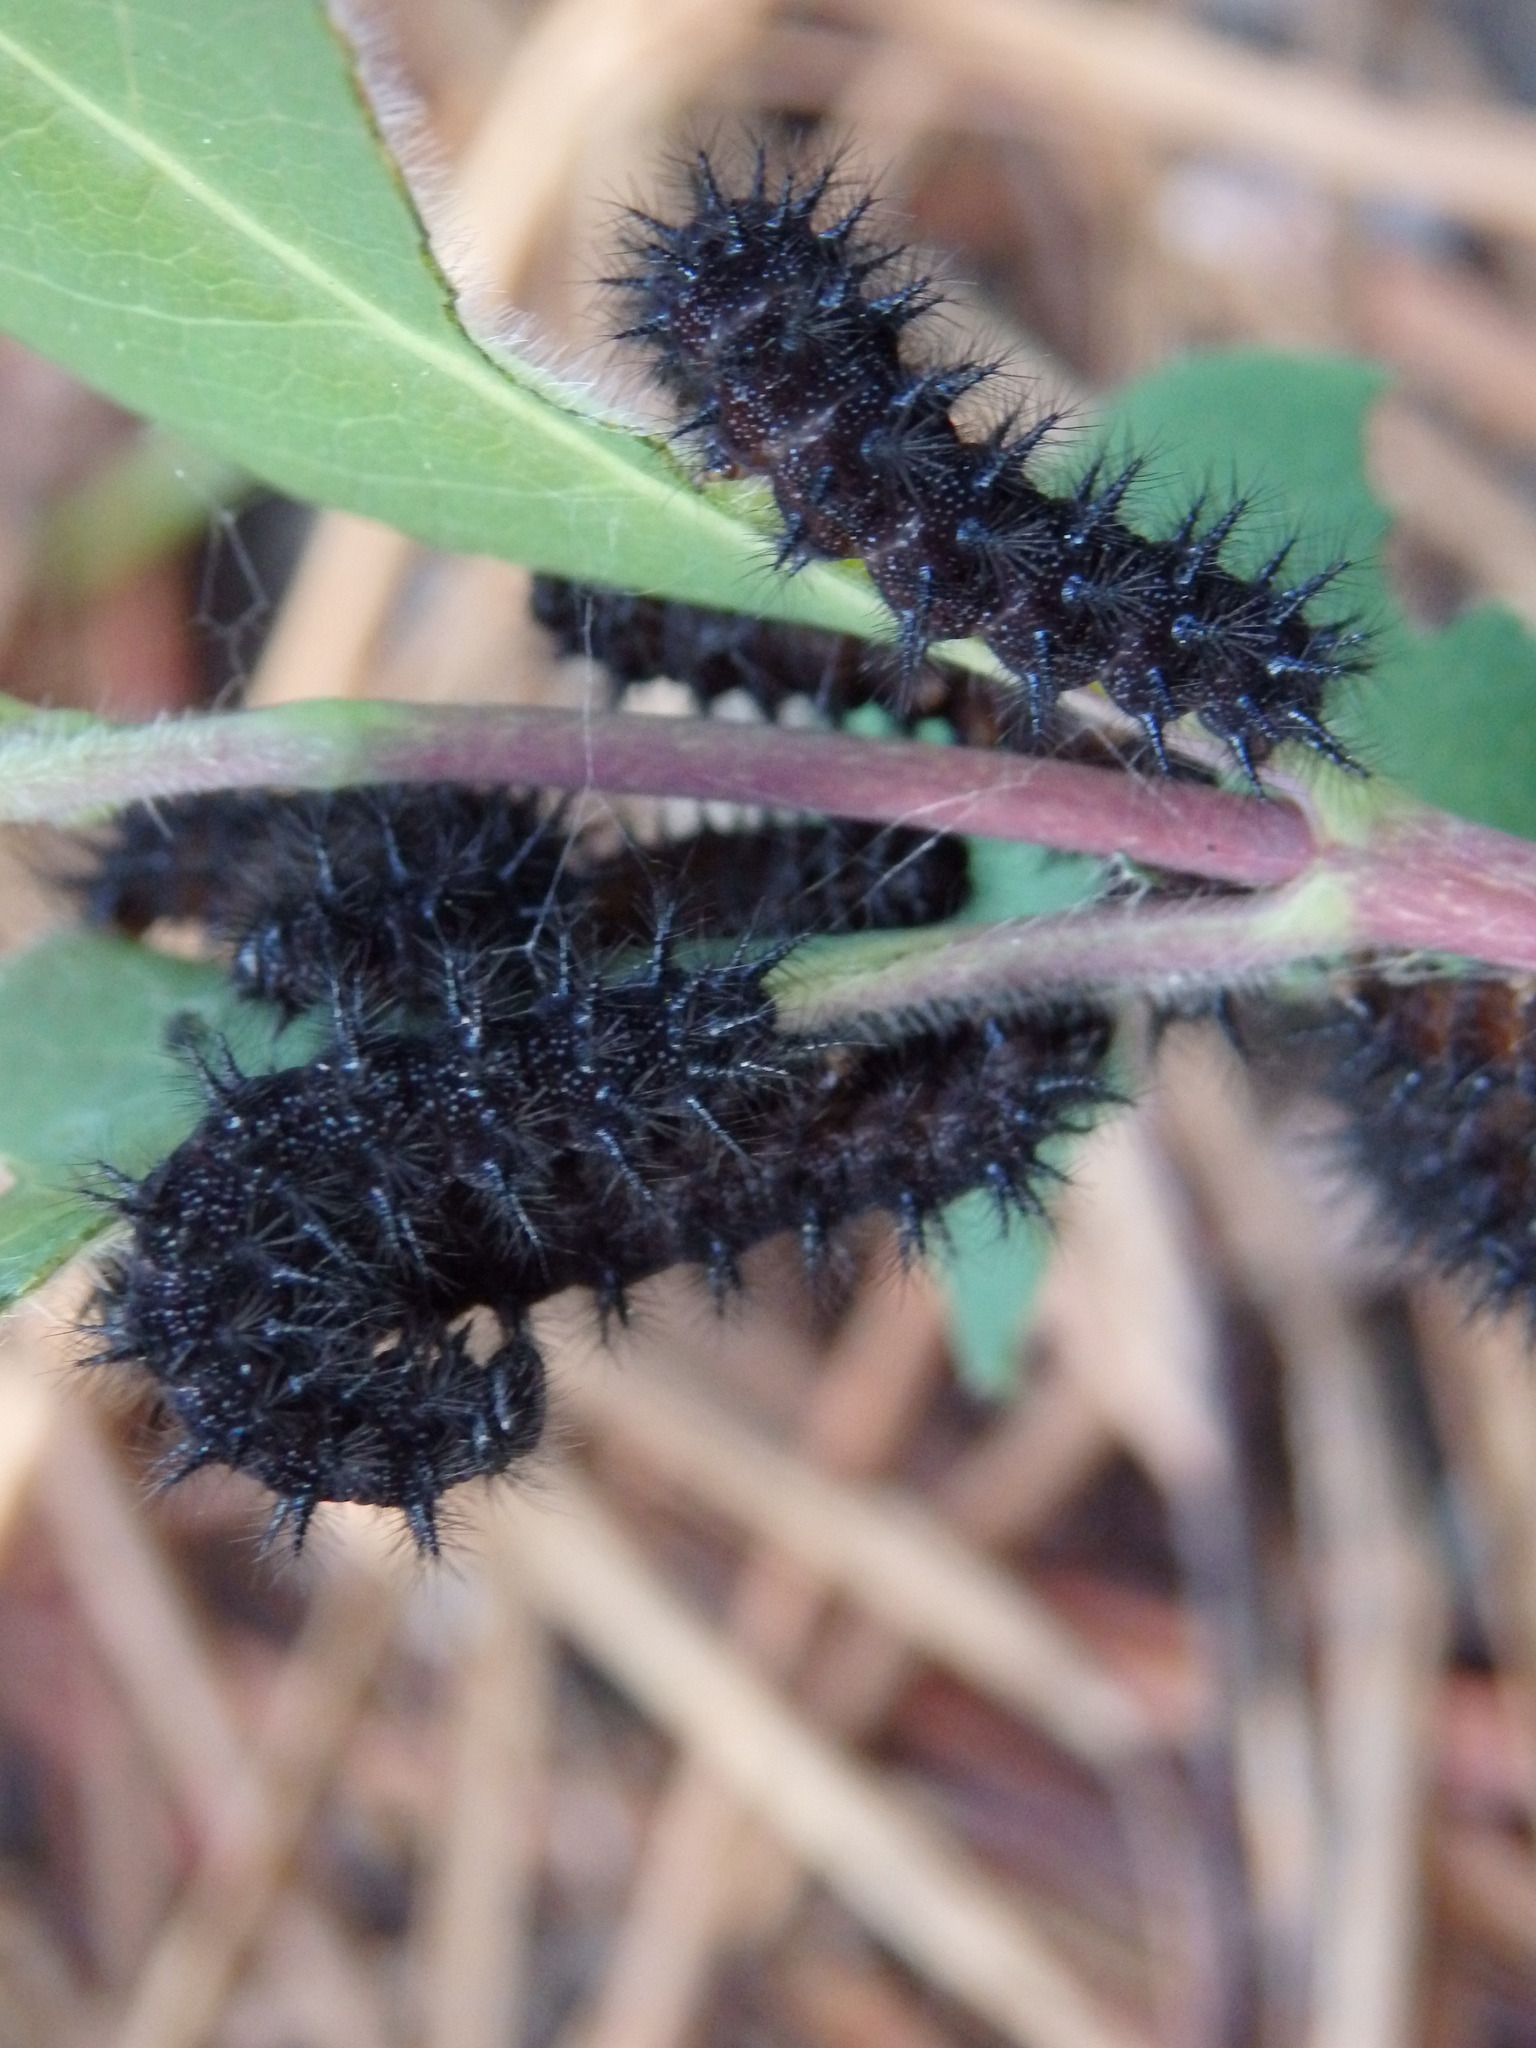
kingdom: Animalia
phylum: Arthropoda
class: Insecta
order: Lepidoptera
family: Nymphalidae
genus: Euphydryas
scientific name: Euphydryas aurinia
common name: Marsh fritillary
